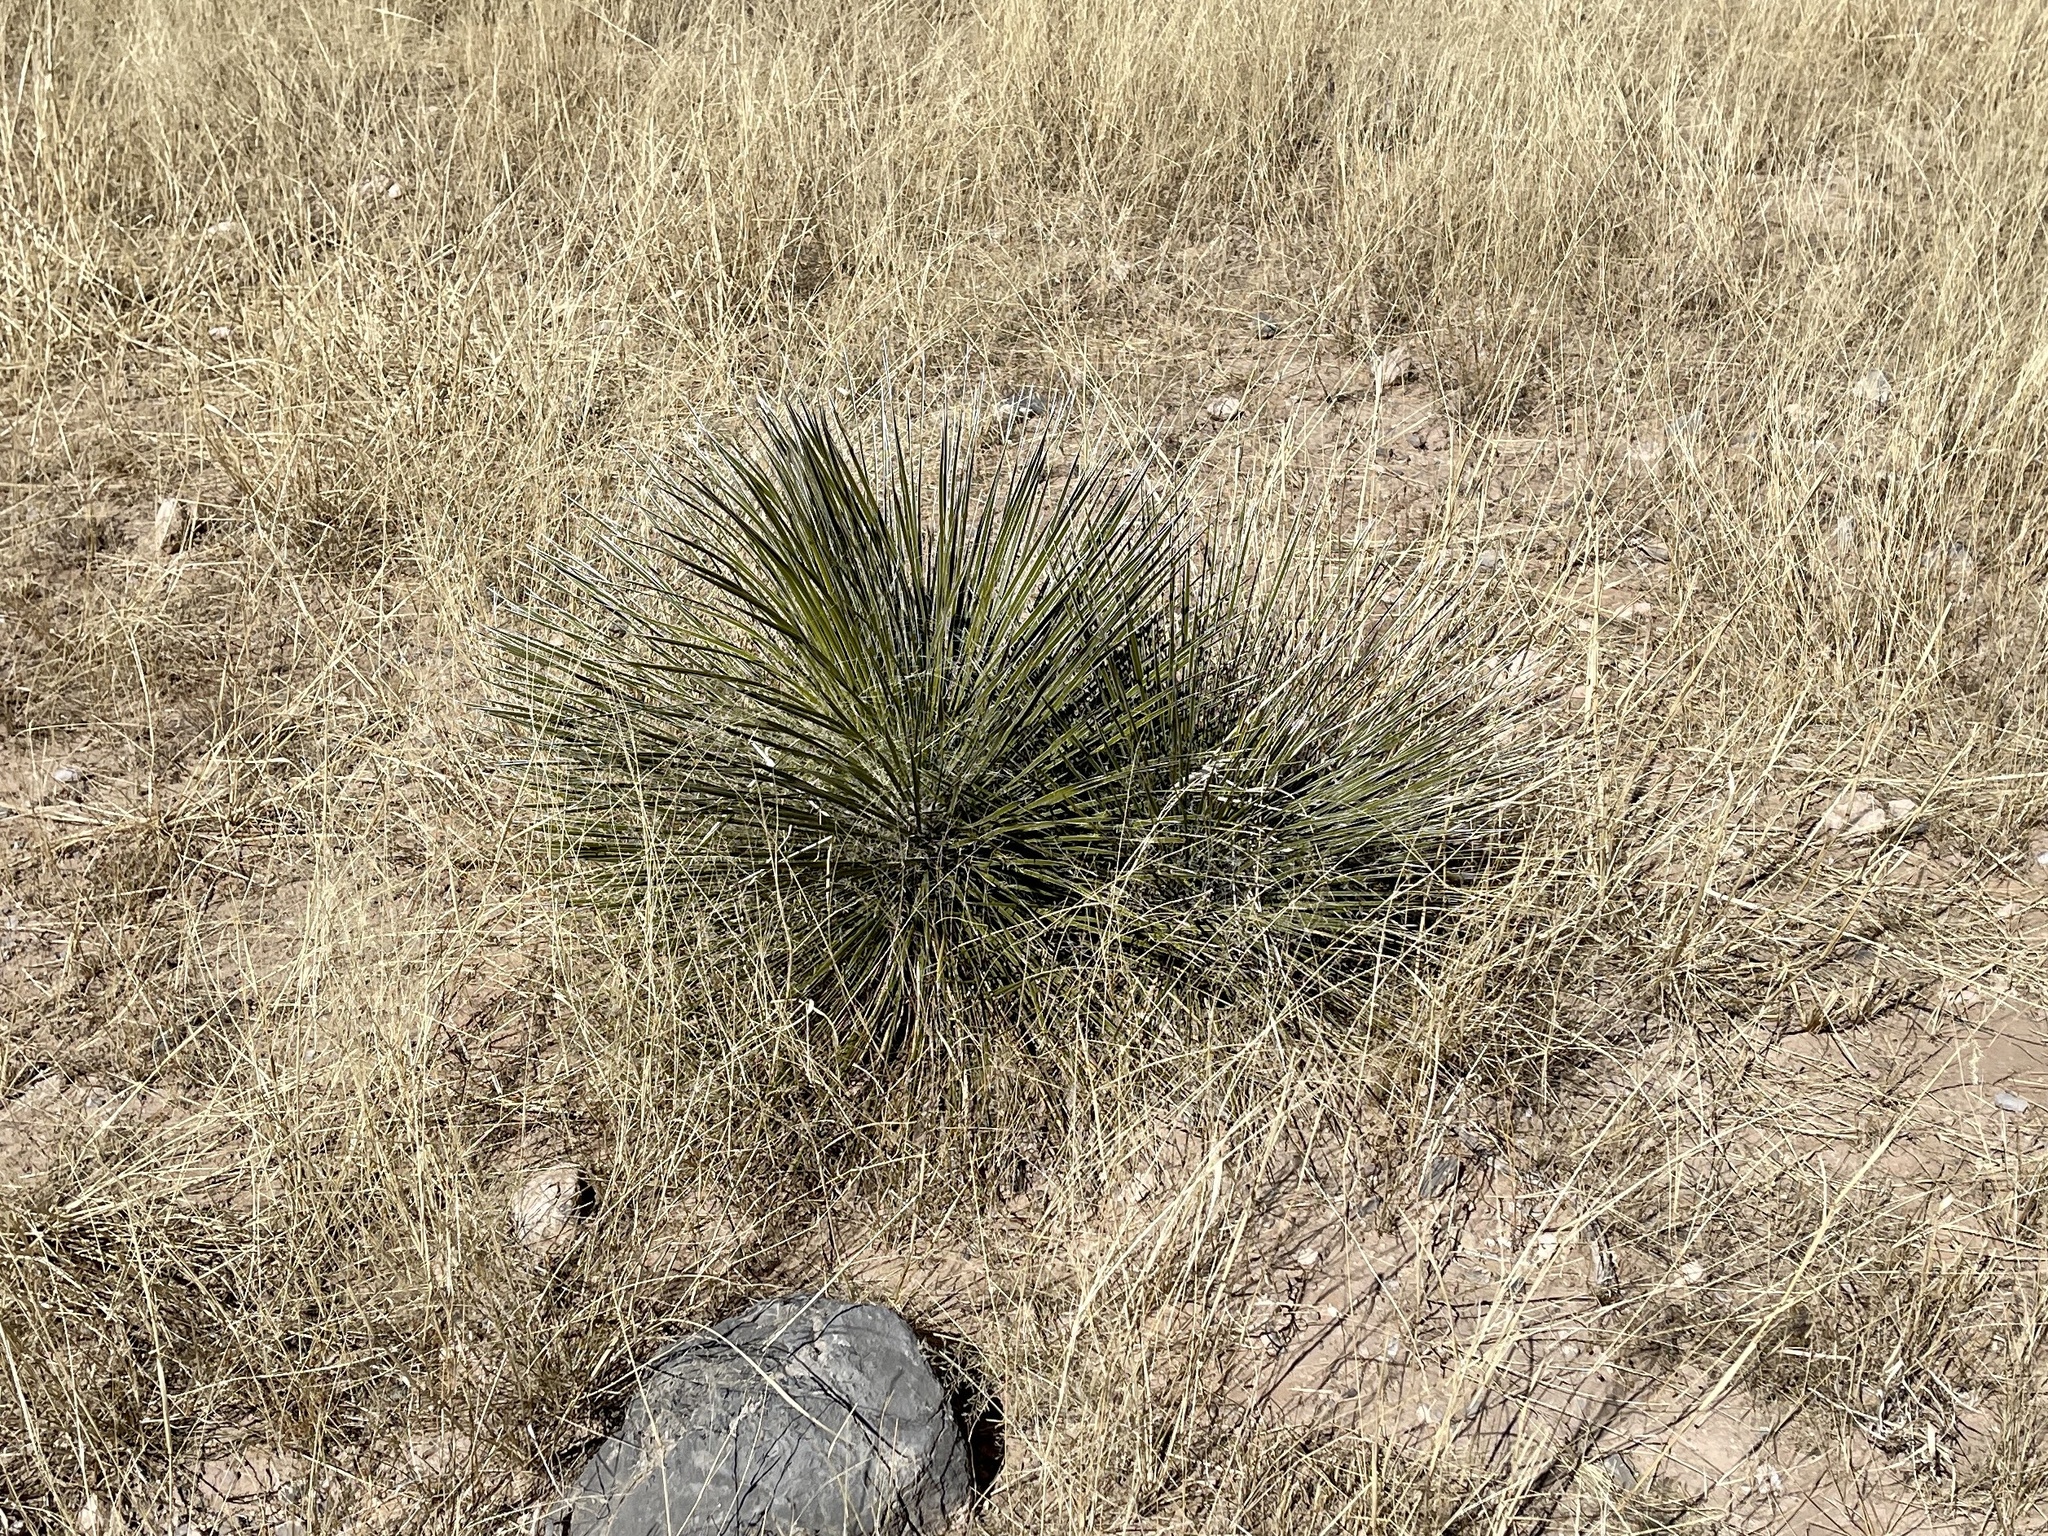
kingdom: Plantae
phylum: Tracheophyta
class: Liliopsida
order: Asparagales
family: Asparagaceae
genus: Yucca
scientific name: Yucca elata
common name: Palmella
